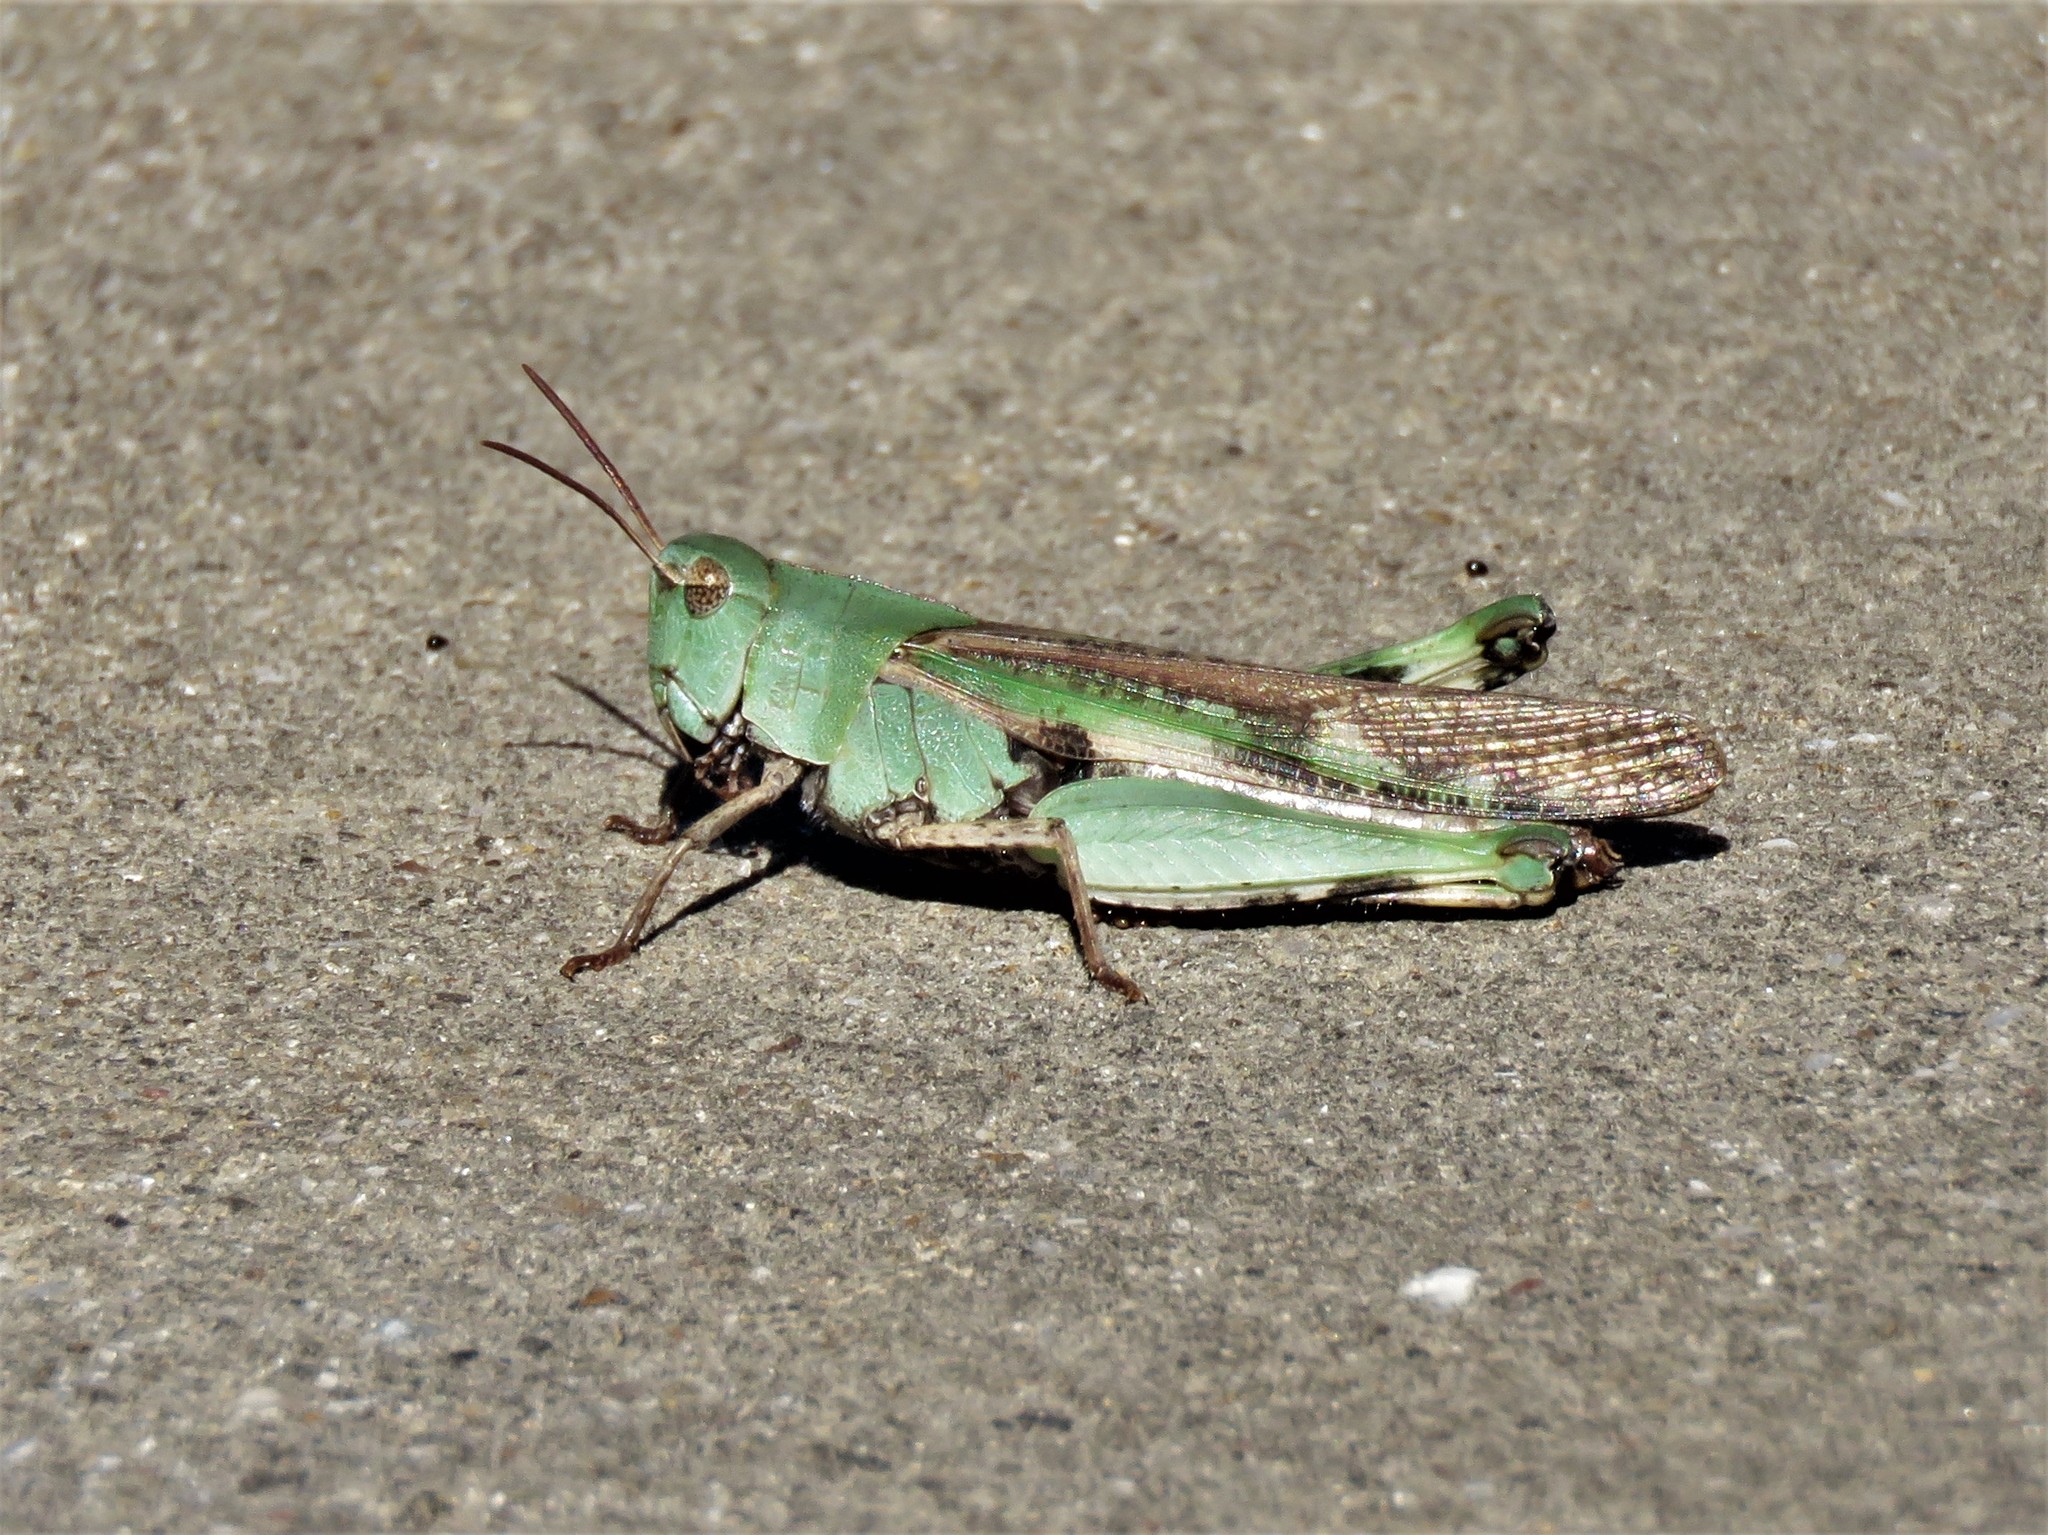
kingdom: Animalia
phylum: Arthropoda
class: Insecta
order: Orthoptera
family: Acrididae
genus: Chortophaga
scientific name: Chortophaga viridifasciata
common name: Green-striped grasshopper
